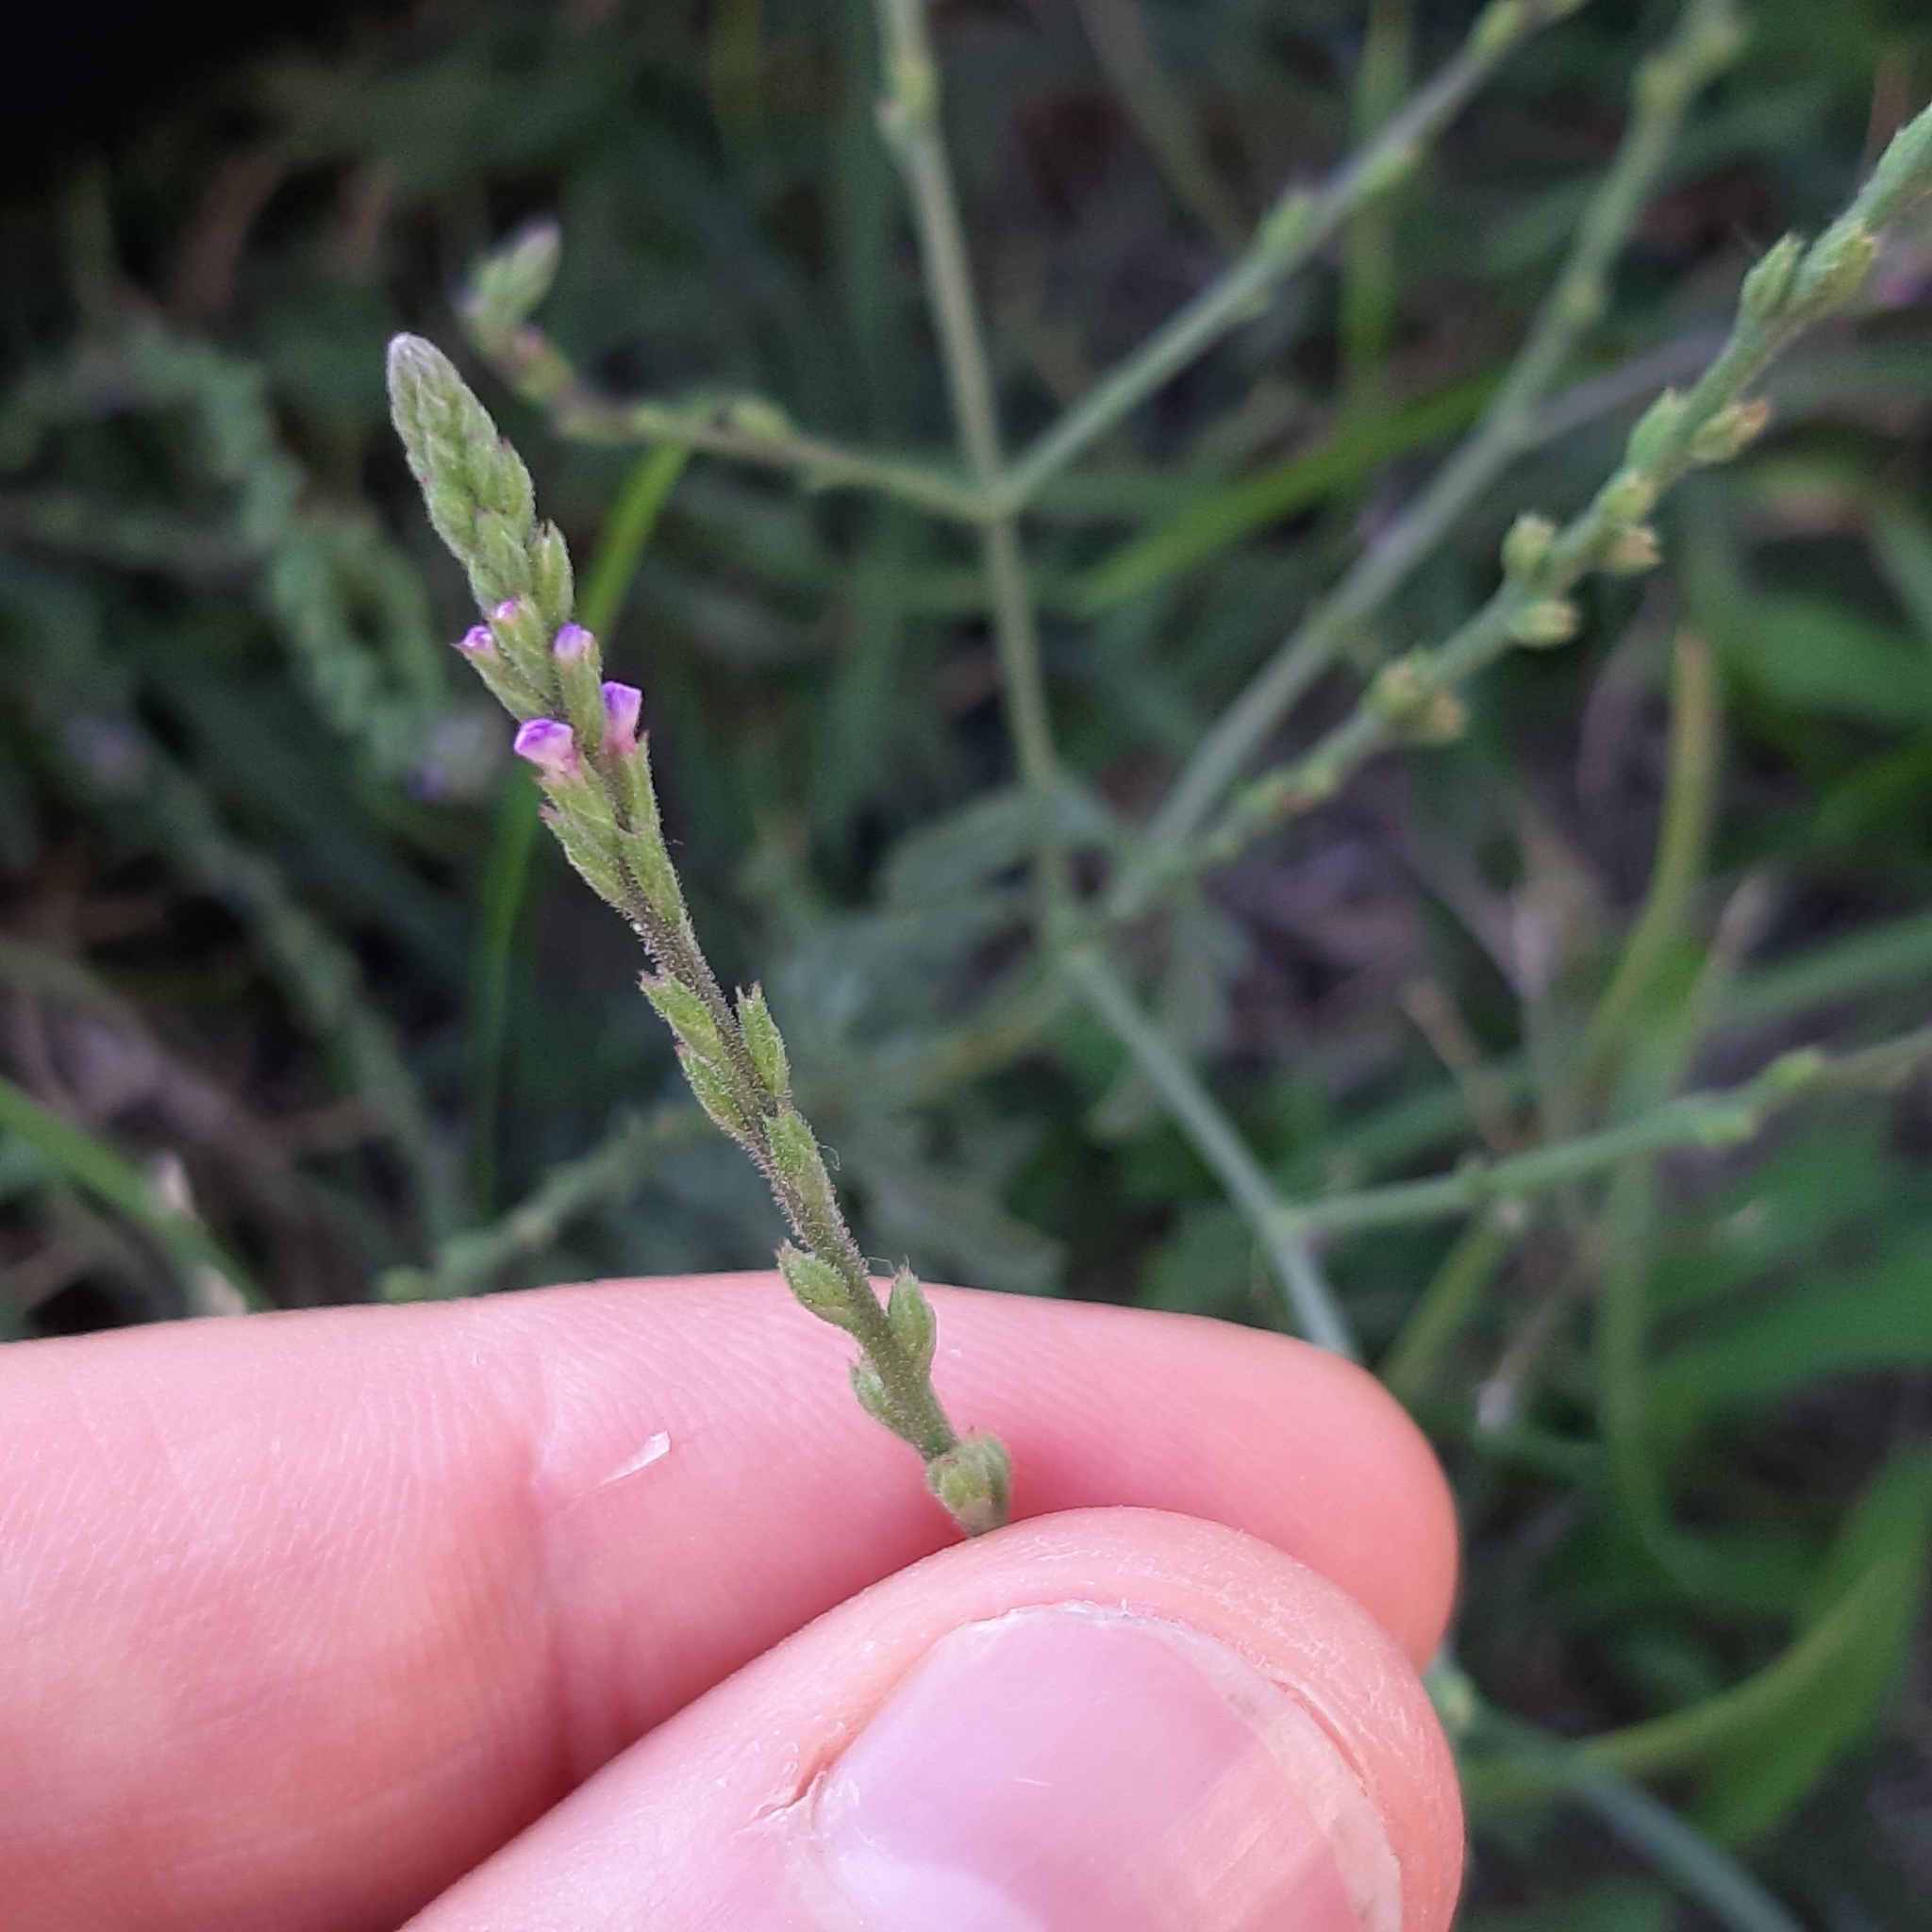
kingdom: Plantae
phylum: Tracheophyta
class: Magnoliopsida
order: Lamiales
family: Verbenaceae
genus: Verbena
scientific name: Verbena officinalis
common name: Vervain
